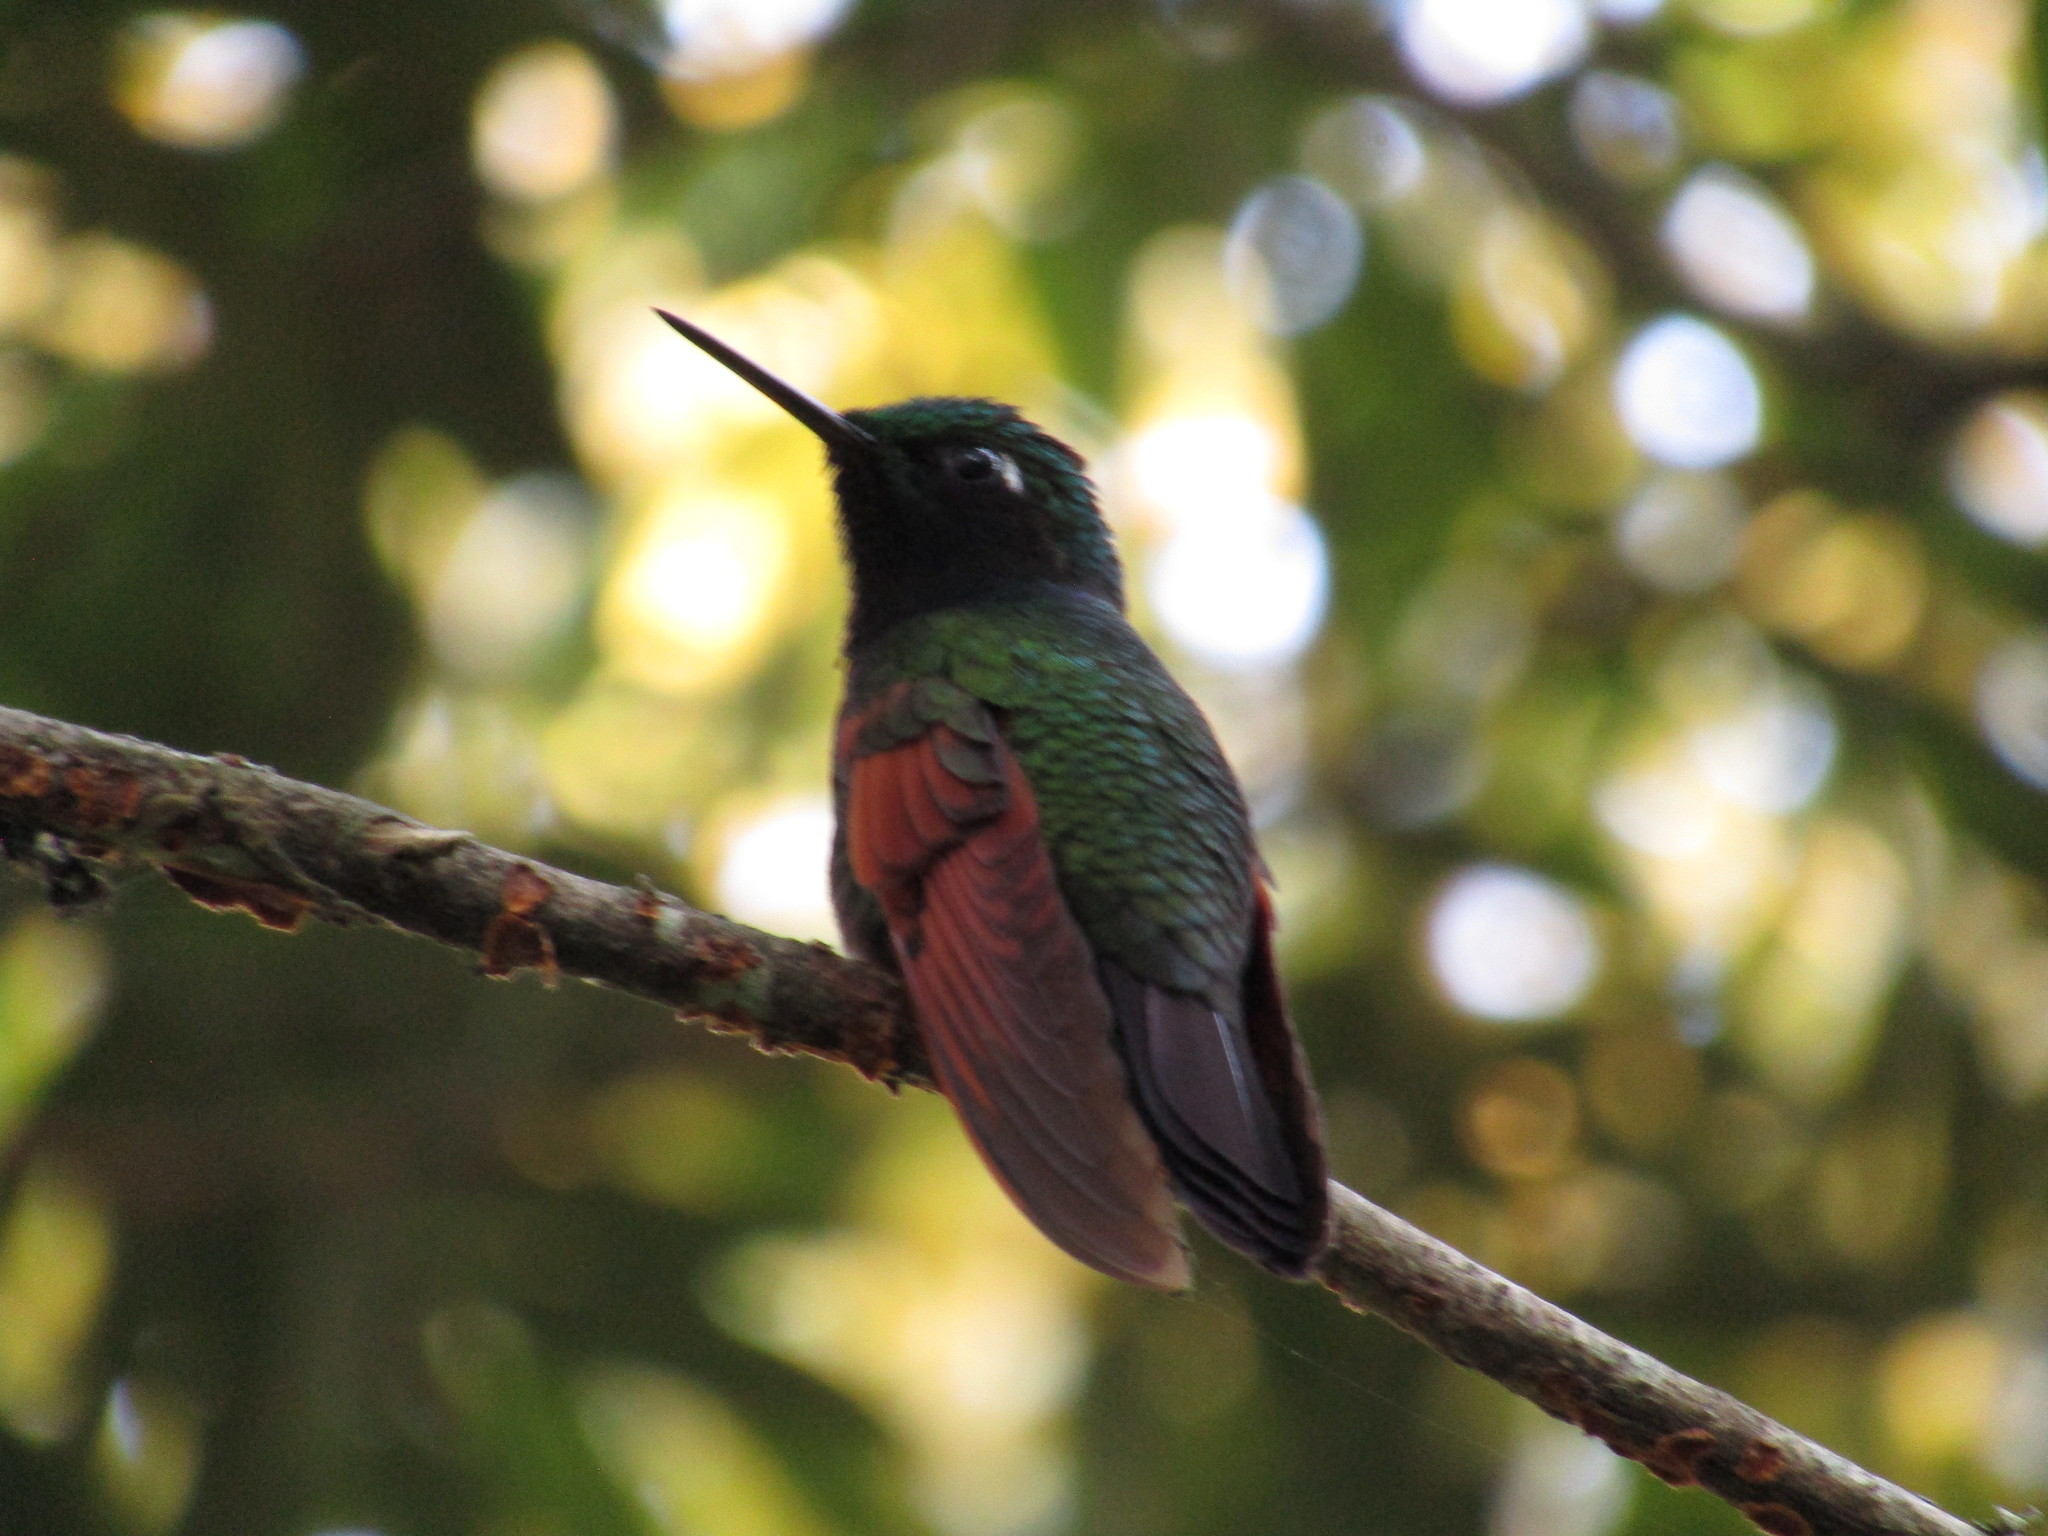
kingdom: Animalia
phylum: Chordata
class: Aves
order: Apodiformes
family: Trochilidae
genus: Lamprolaima
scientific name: Lamprolaima rhami
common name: Garnet-throated hummingbird
